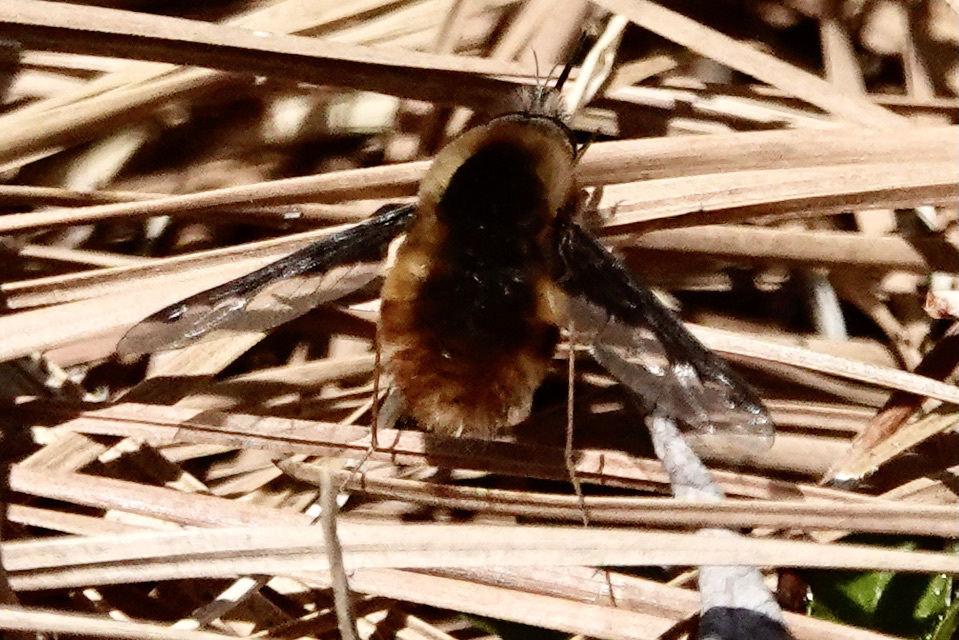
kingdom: Animalia
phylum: Arthropoda
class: Insecta
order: Diptera
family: Bombyliidae
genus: Bombylius
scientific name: Bombylius major
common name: Bee fly
